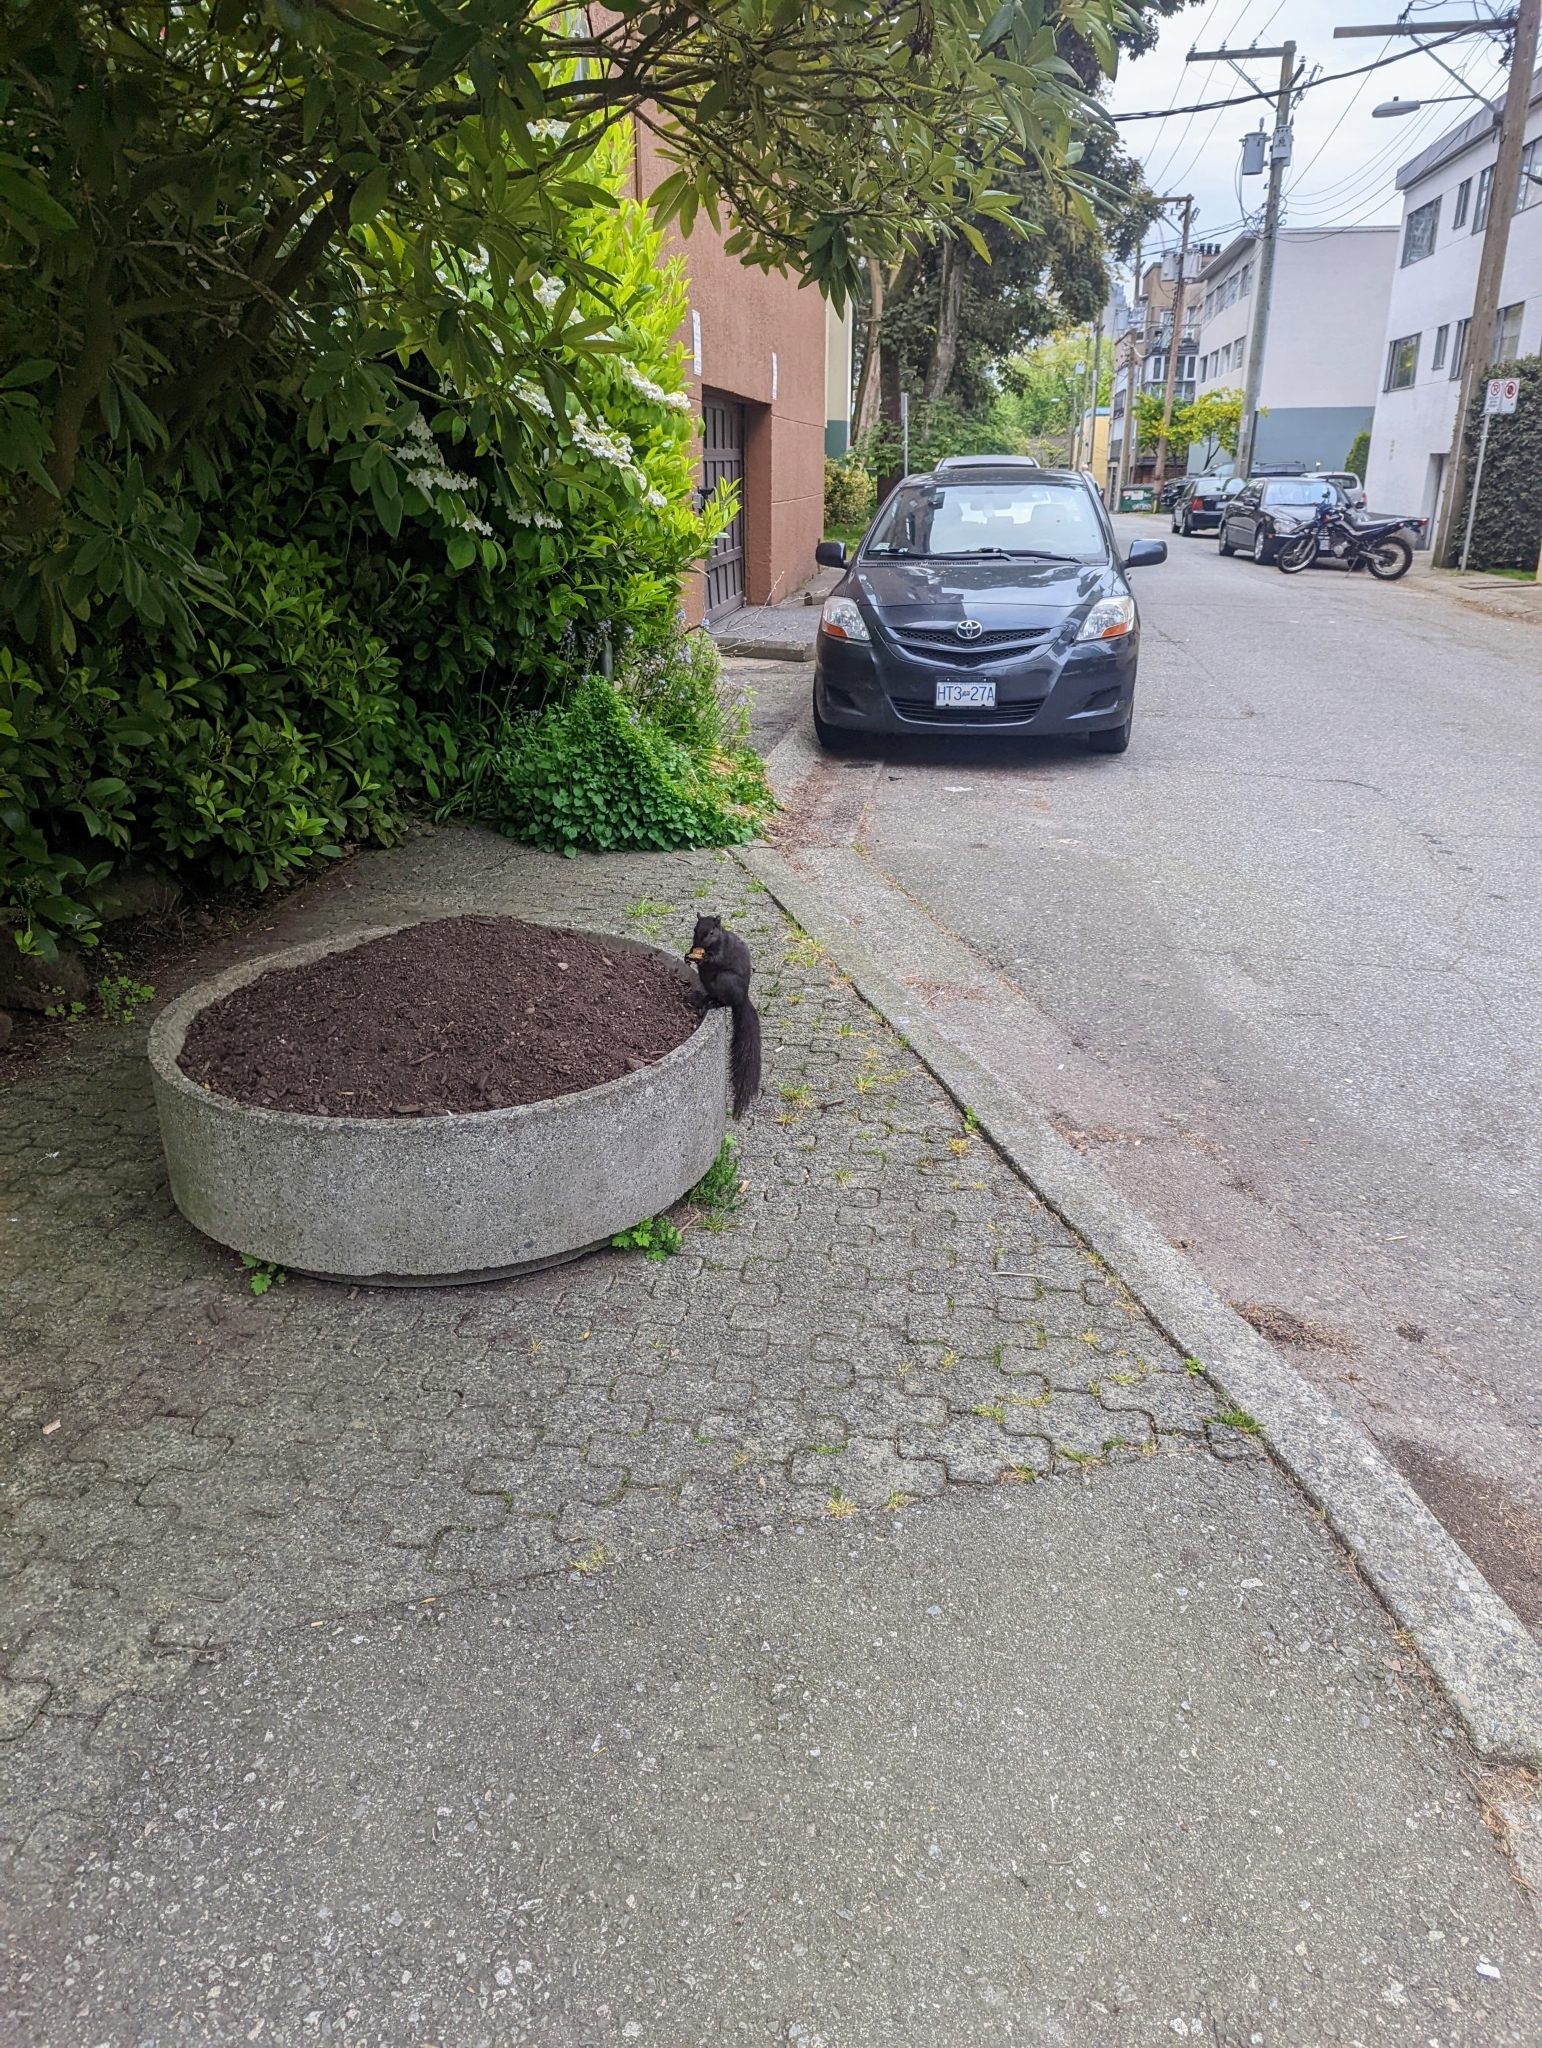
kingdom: Animalia
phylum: Chordata
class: Mammalia
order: Rodentia
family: Sciuridae
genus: Sciurus
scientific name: Sciurus carolinensis
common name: Eastern gray squirrel
